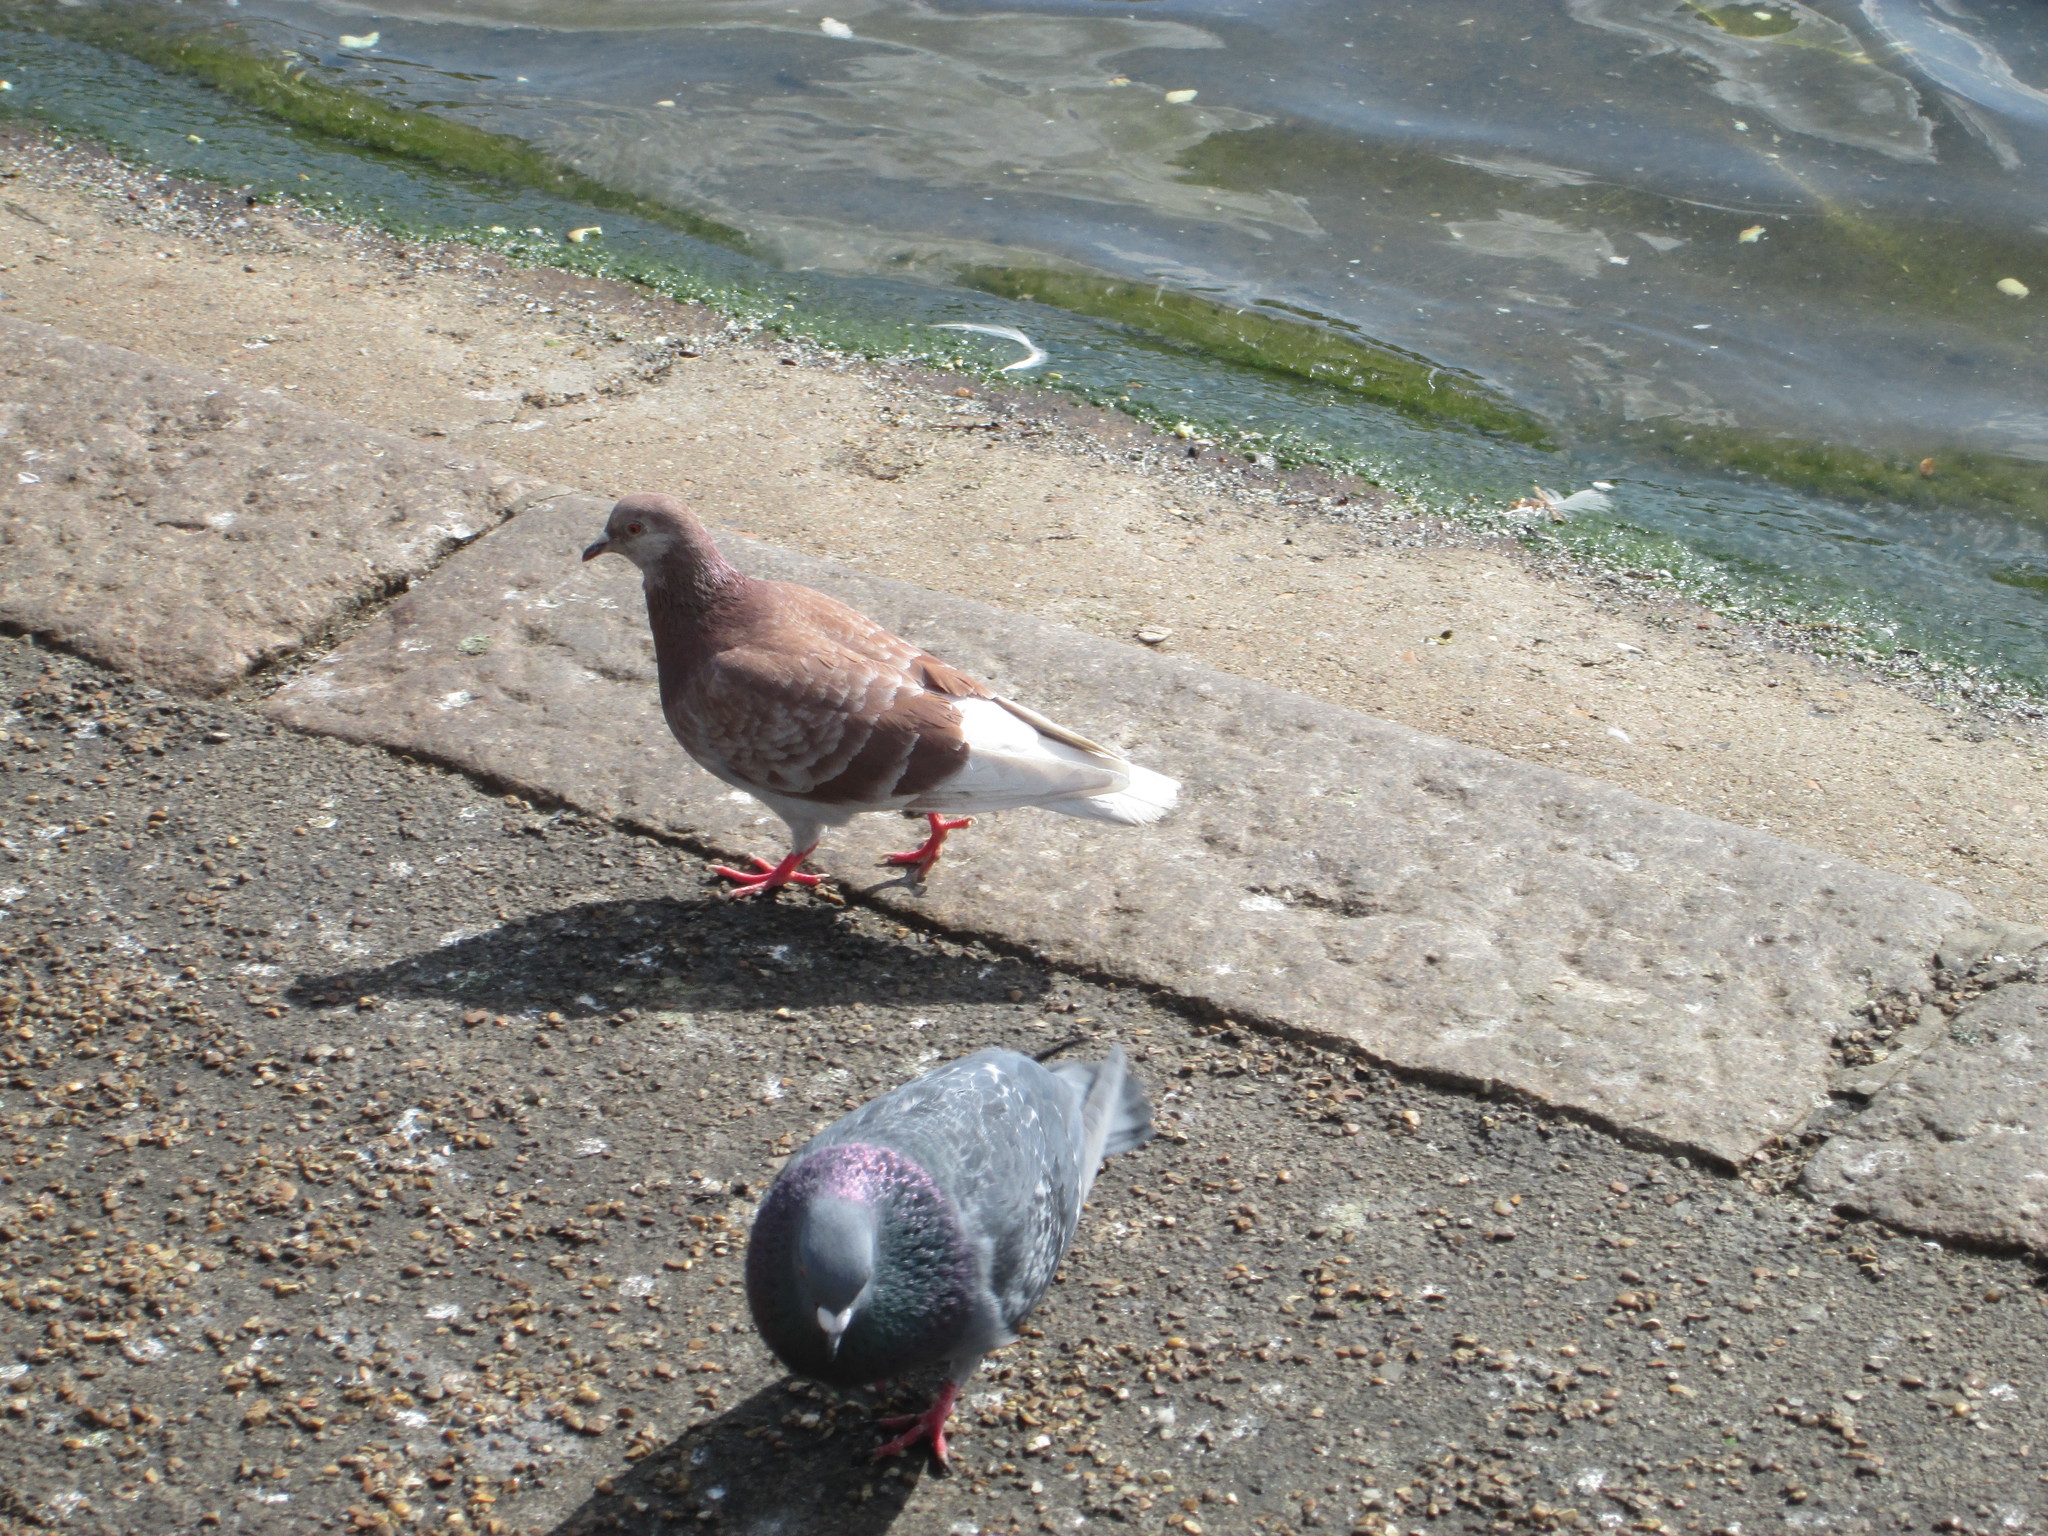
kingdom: Animalia
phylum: Chordata
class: Aves
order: Columbiformes
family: Columbidae
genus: Columba
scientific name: Columba livia
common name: Rock pigeon
